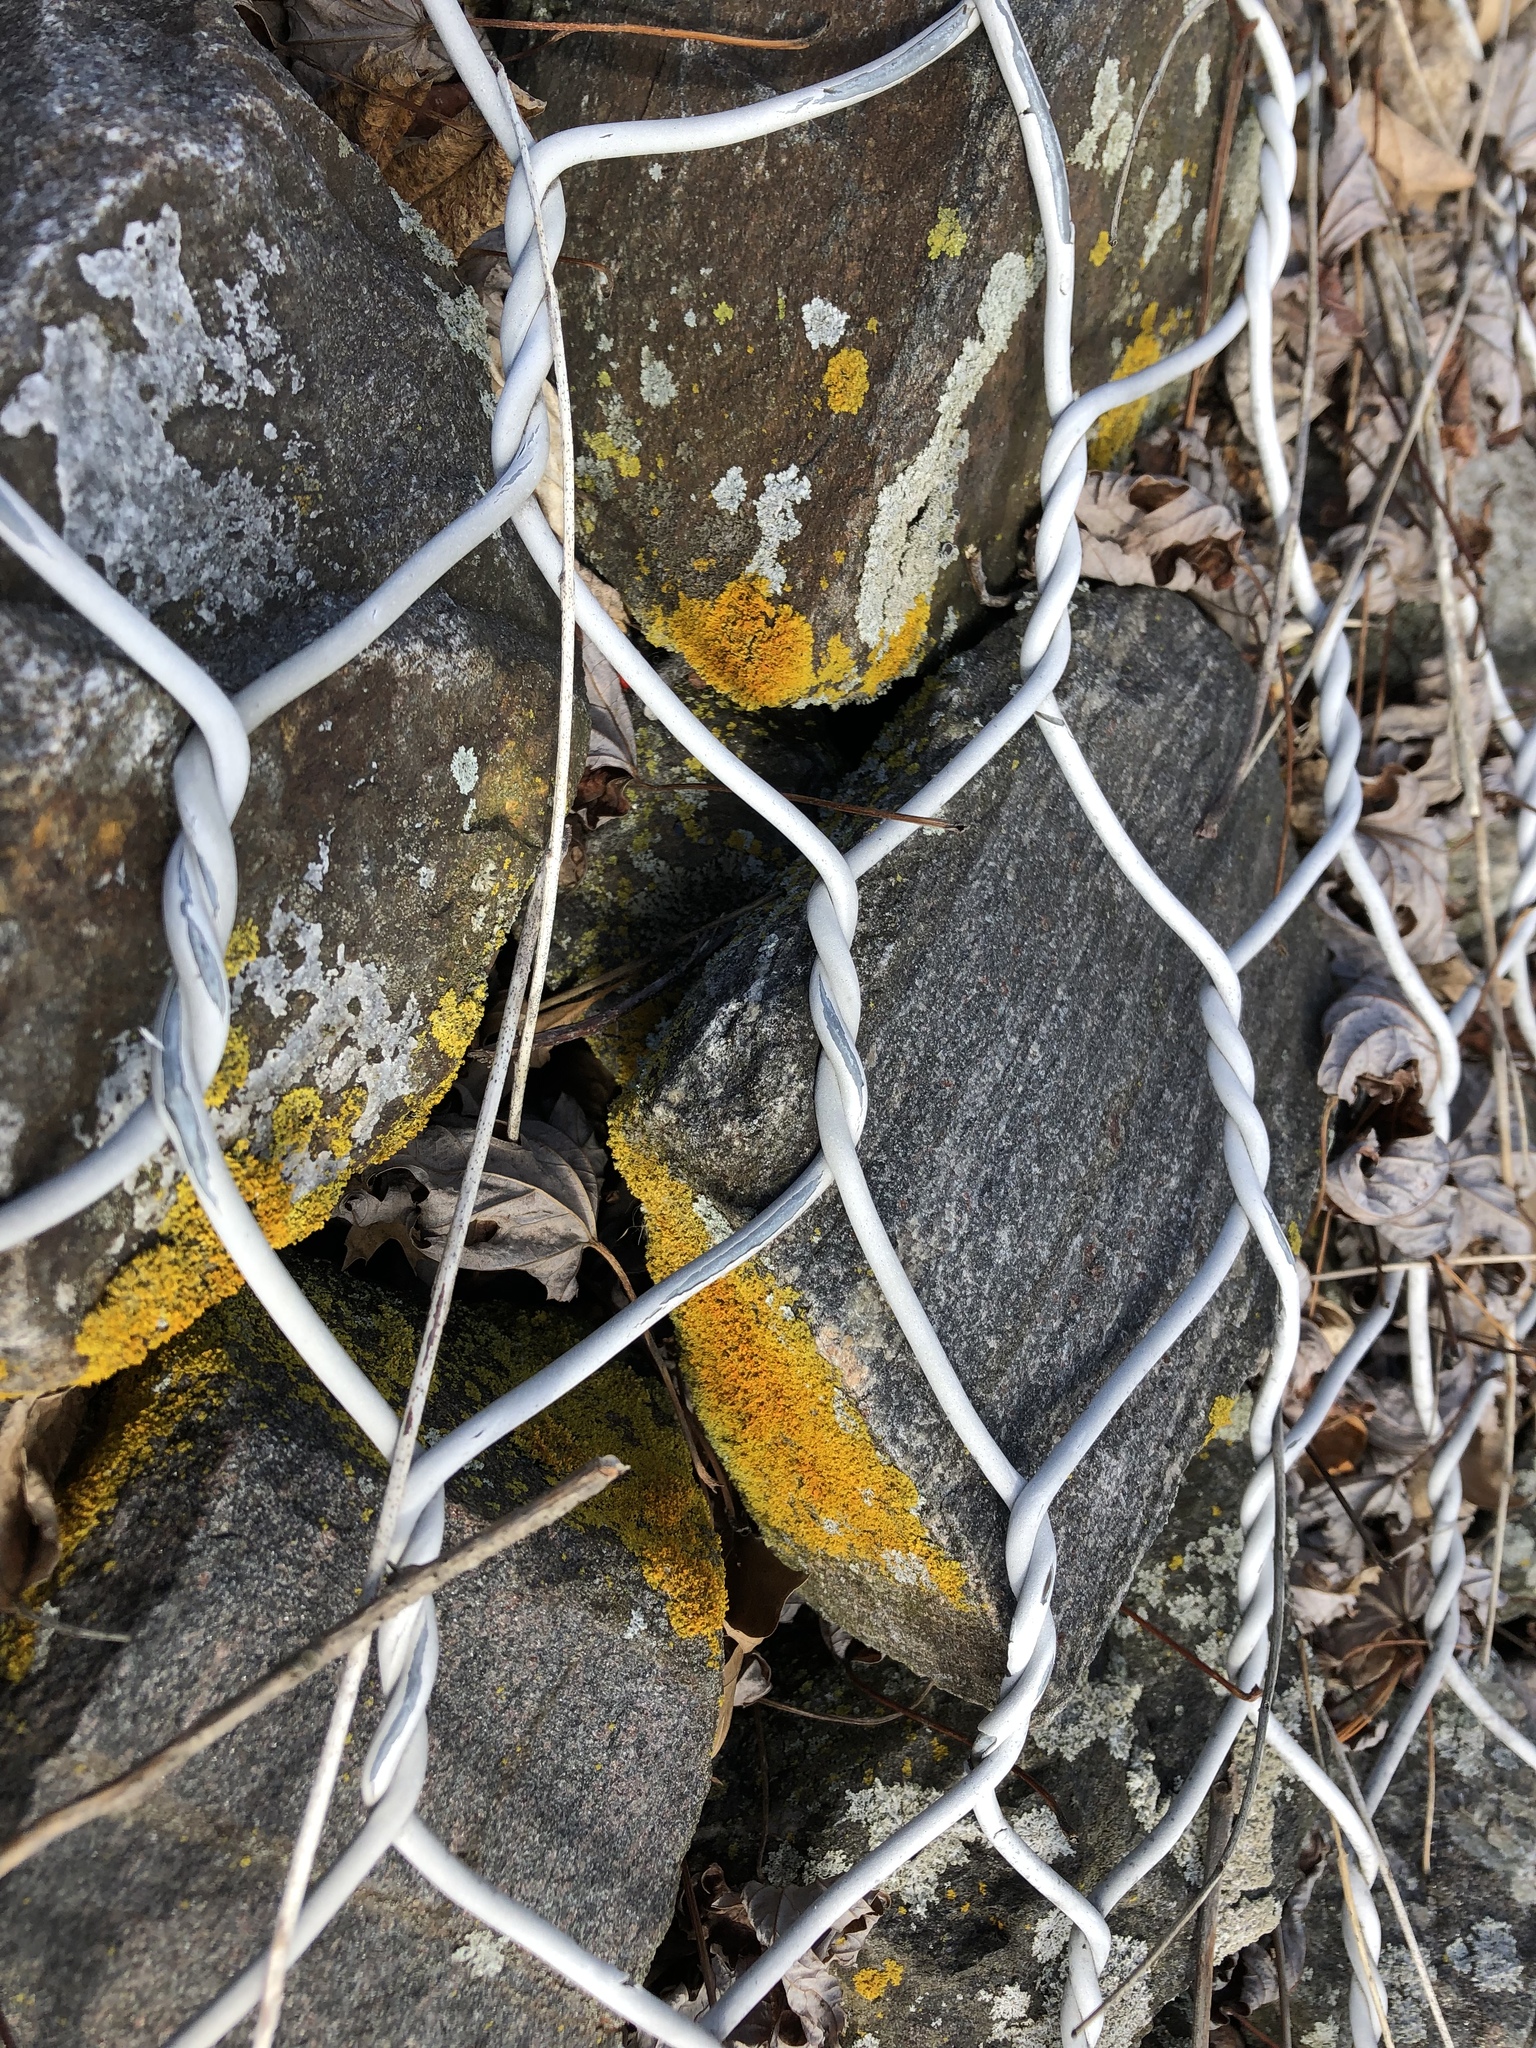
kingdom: Fungi
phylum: Ascomycota
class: Lecanoromycetes
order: Teloschistales
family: Teloschistaceae
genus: Xanthoria
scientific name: Xanthoria parietina
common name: Common orange lichen
